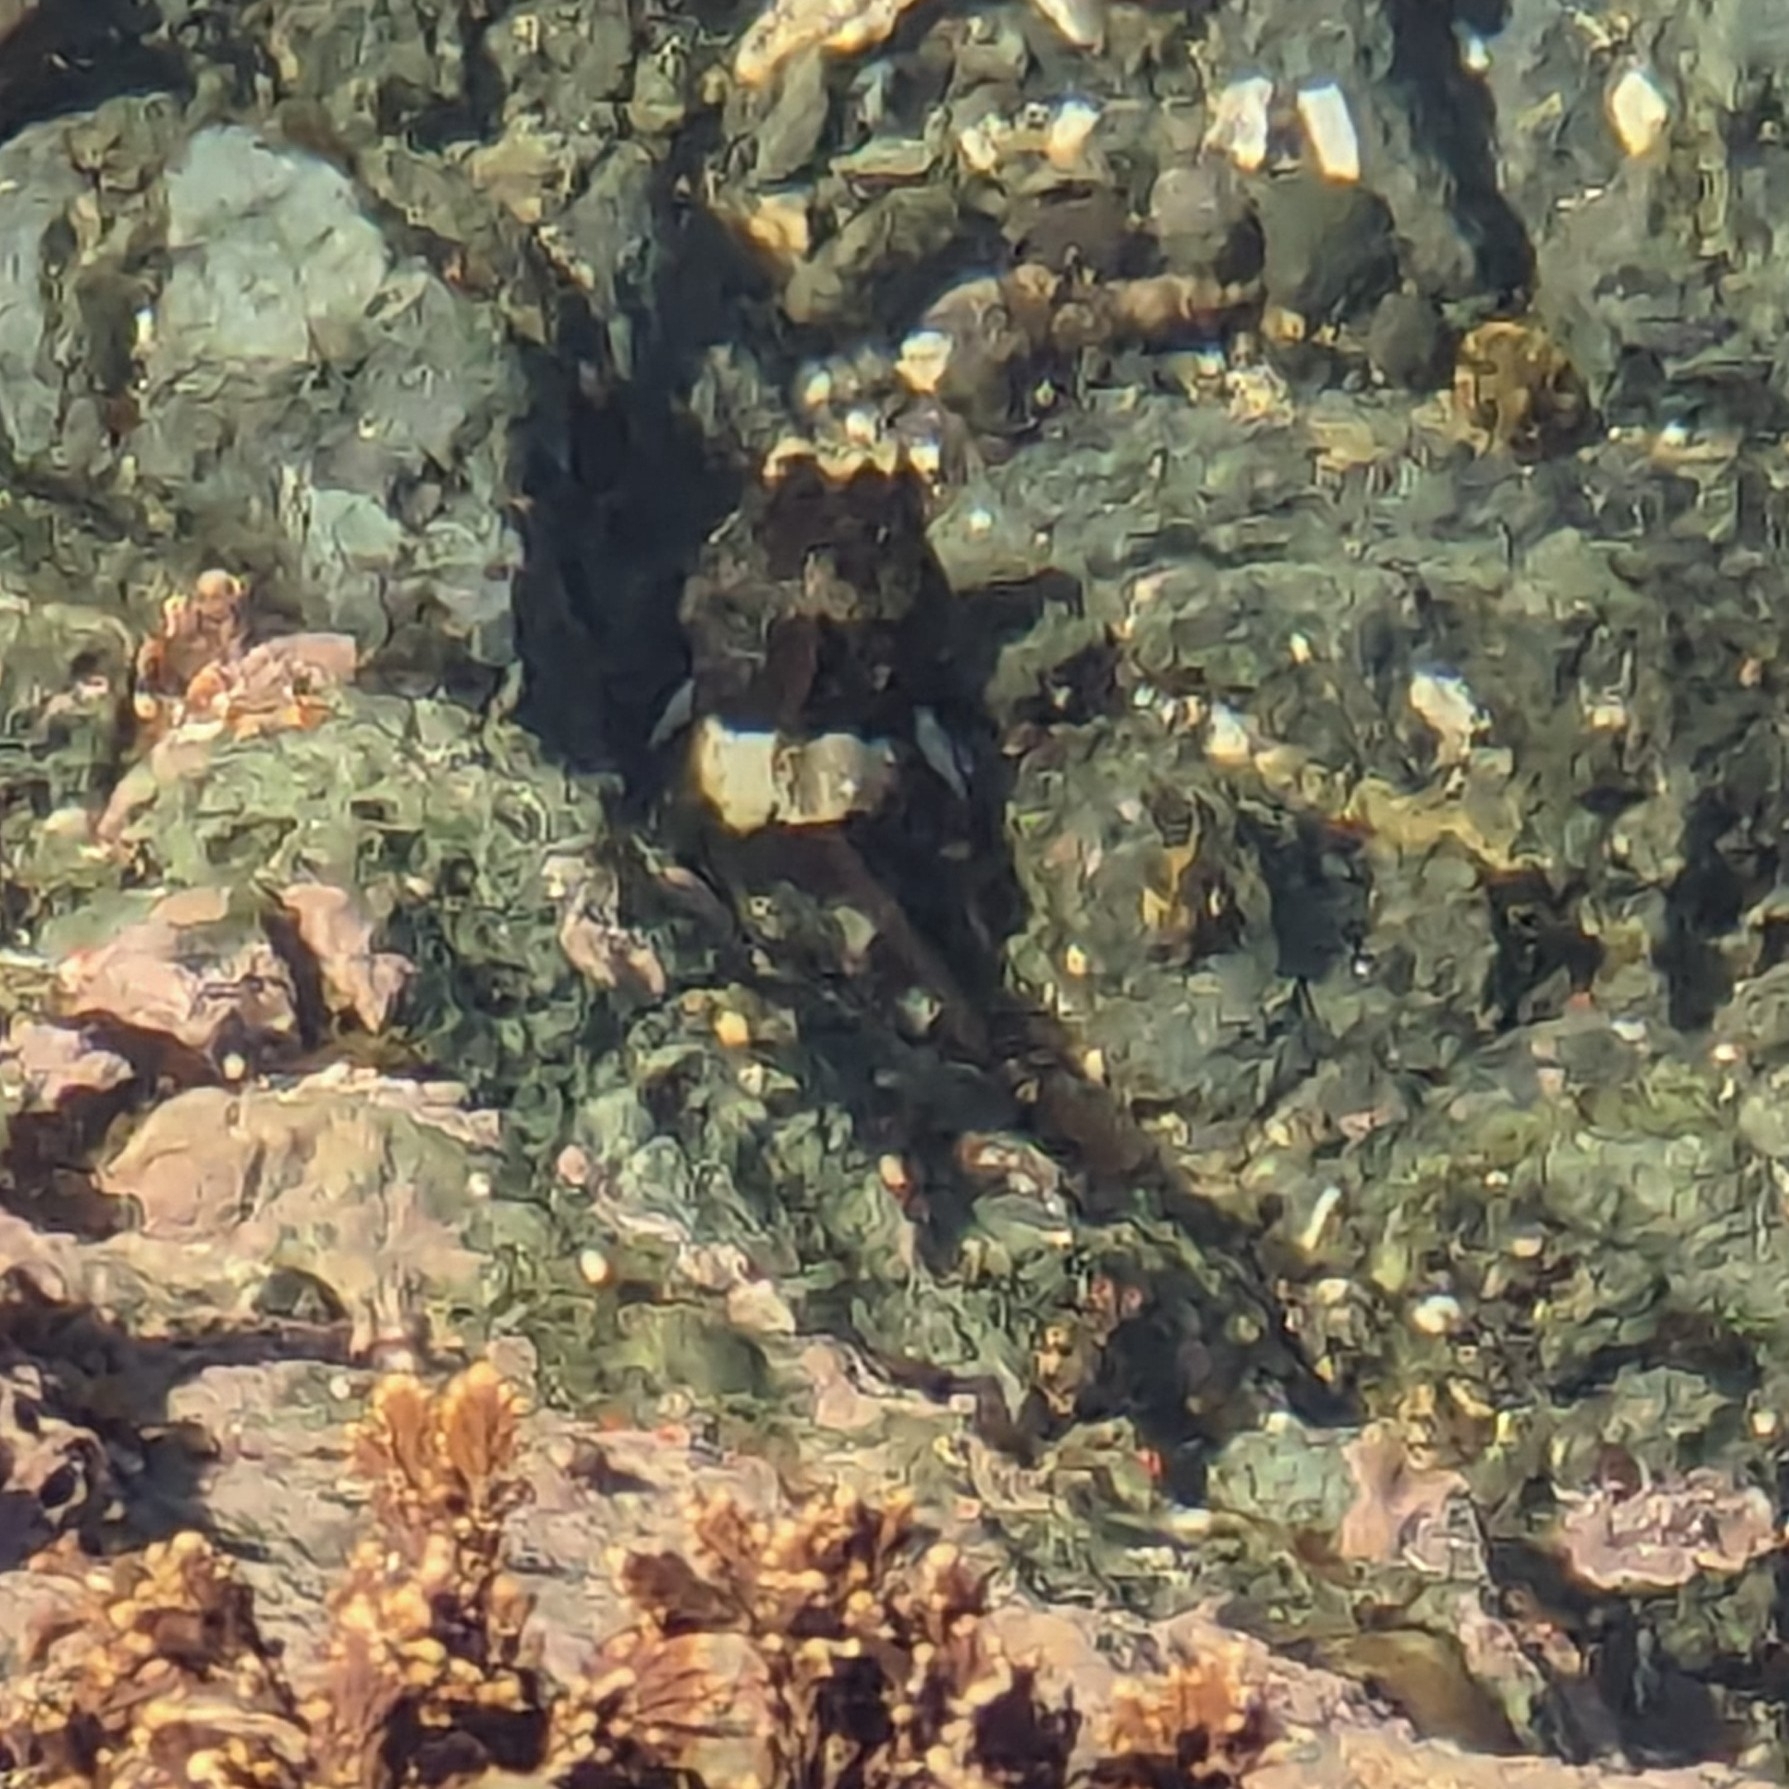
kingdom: Animalia
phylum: Chordata
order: Scorpaeniformes
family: Cottidae
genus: Oligocottus
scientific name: Oligocottus maculosus
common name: Tidepool sculpin
